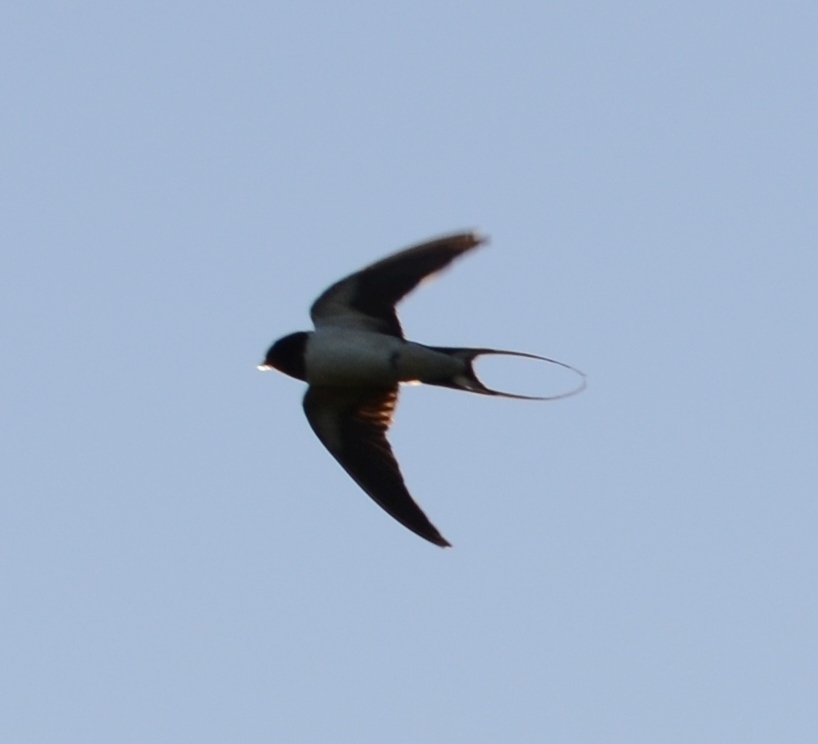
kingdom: Animalia
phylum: Chordata
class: Aves
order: Passeriformes
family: Hirundinidae
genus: Hirundo
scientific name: Hirundo rustica
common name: Barn swallow
